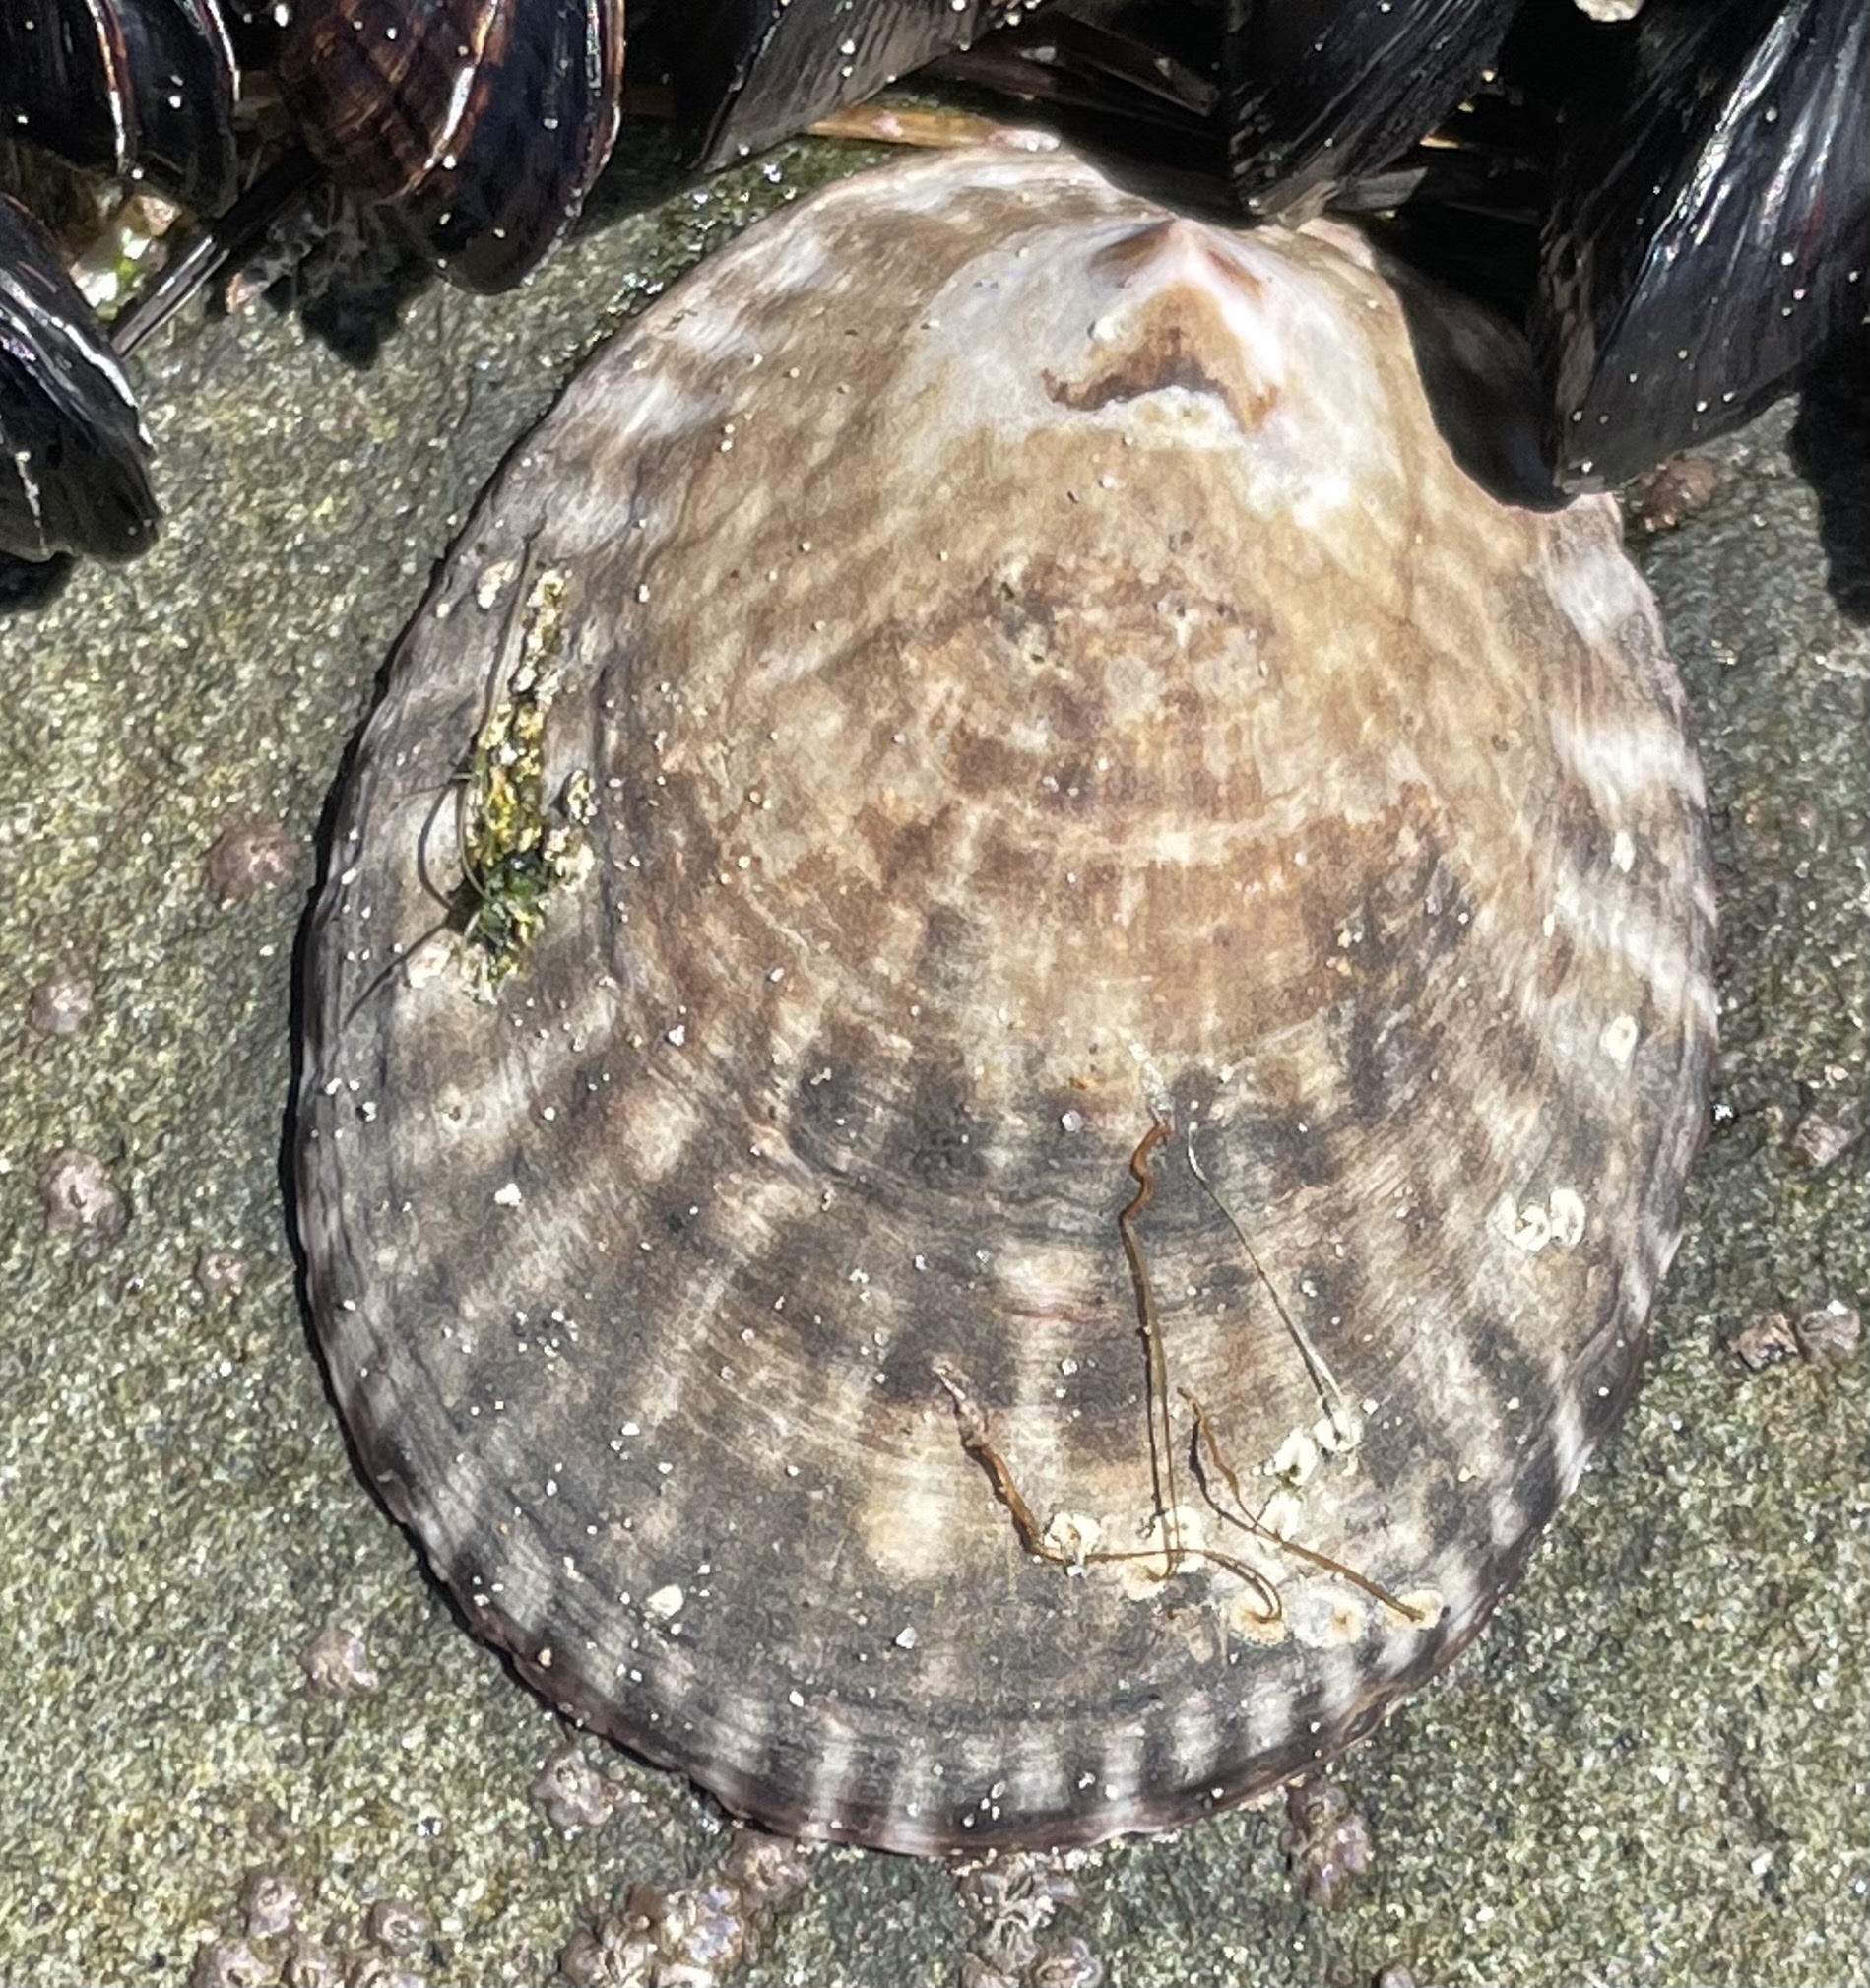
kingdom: Animalia
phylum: Mollusca
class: Gastropoda
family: Lottiidae
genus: Lottia
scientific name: Lottia gigantea
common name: Owl limpet
